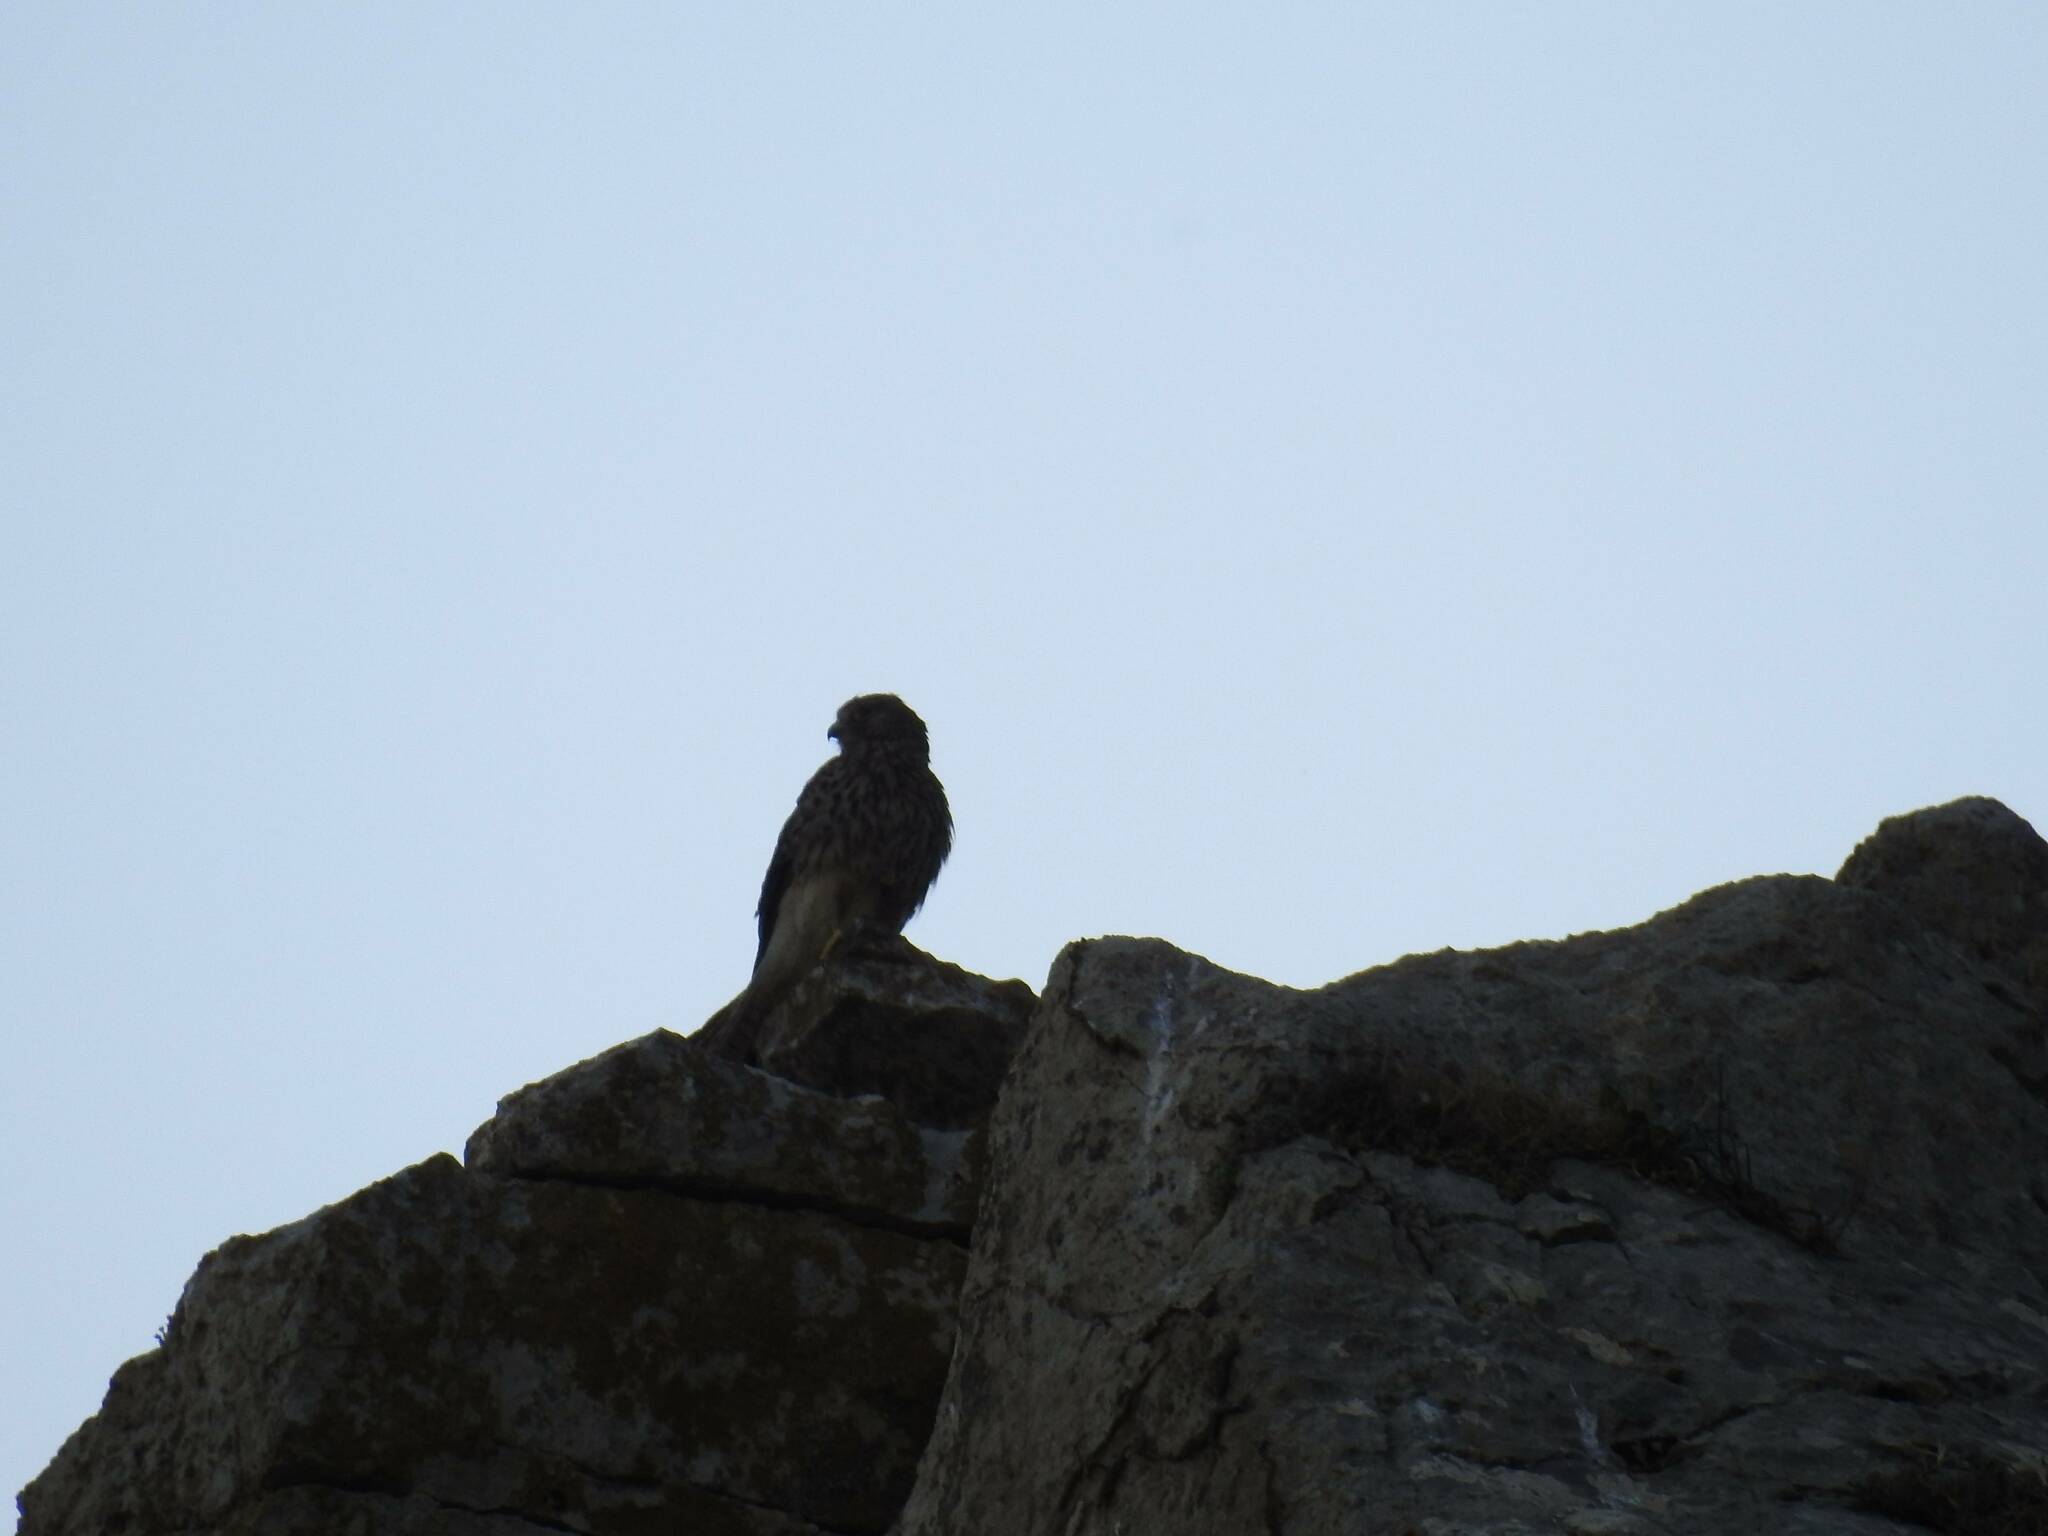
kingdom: Animalia
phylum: Chordata
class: Aves
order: Falconiformes
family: Falconidae
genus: Falco
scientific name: Falco tinnunculus
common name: Common kestrel
